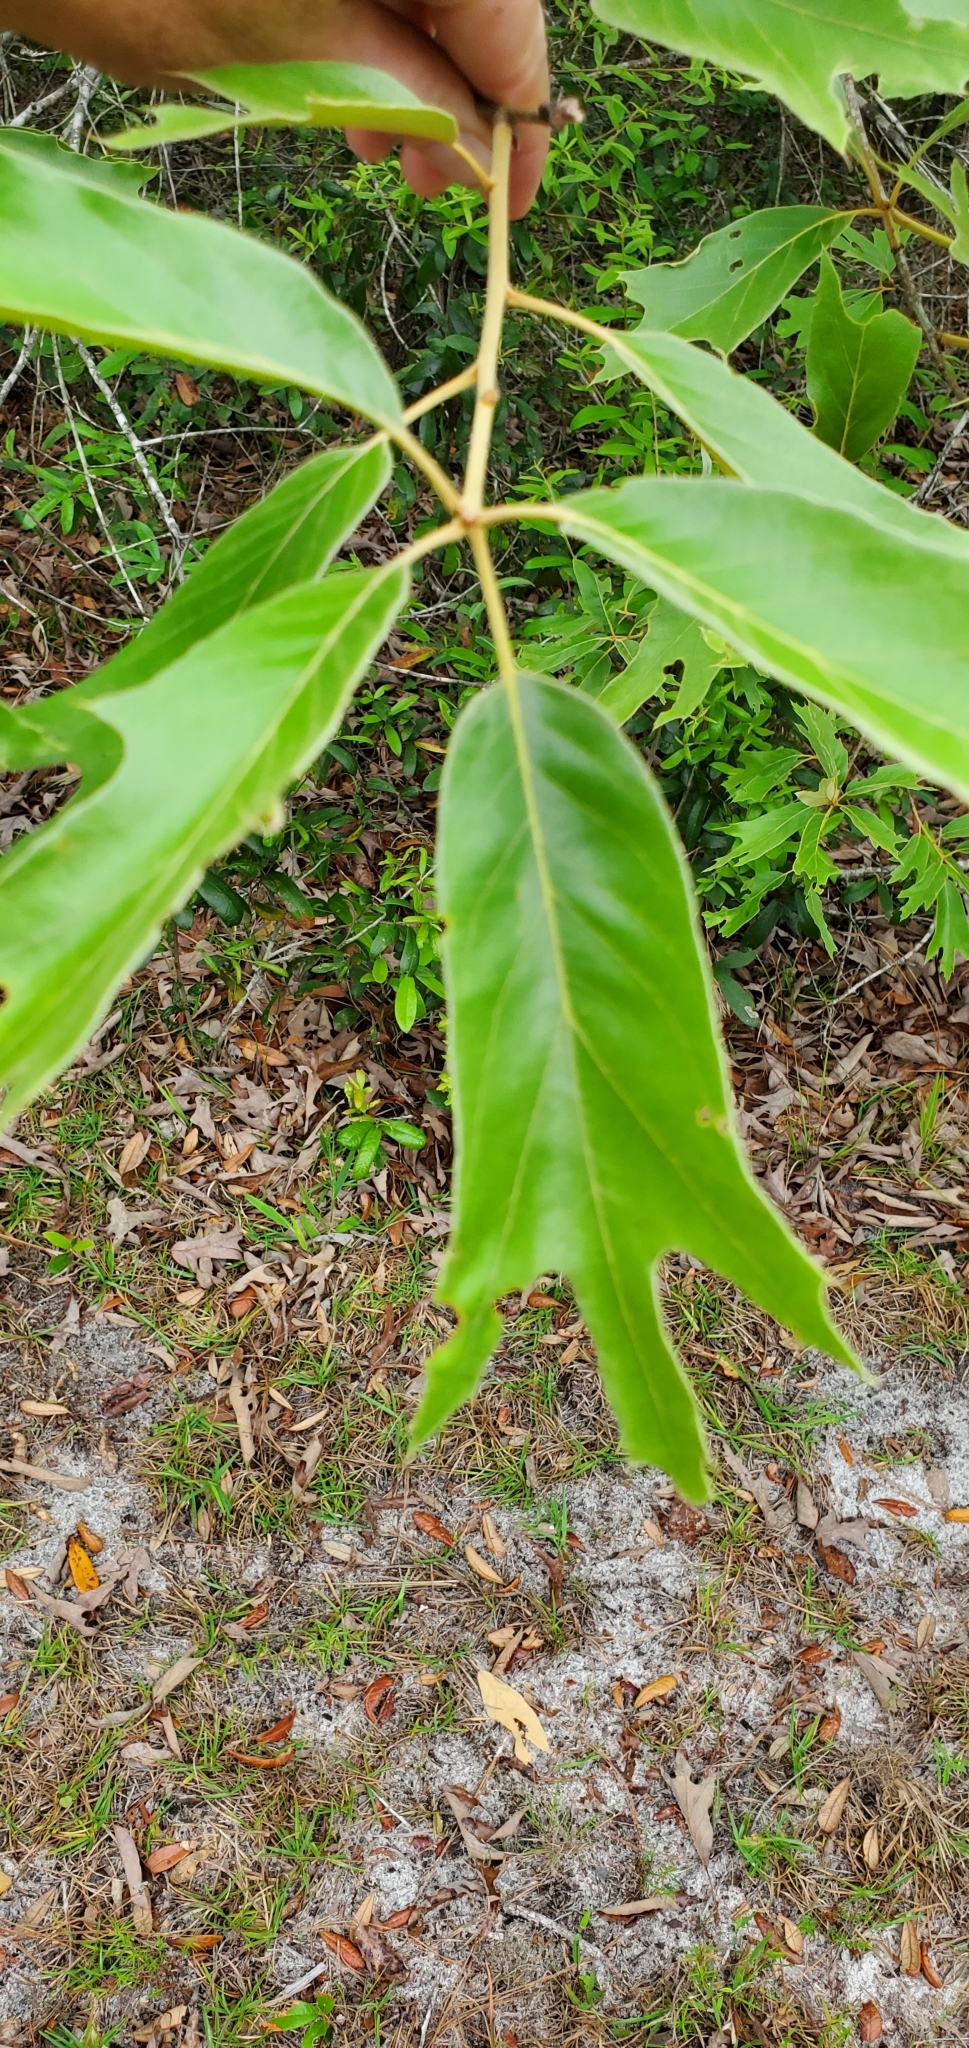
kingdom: Plantae
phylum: Tracheophyta
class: Magnoliopsida
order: Fagales
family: Fagaceae
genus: Quercus
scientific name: Quercus falcata
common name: Southern red oak
